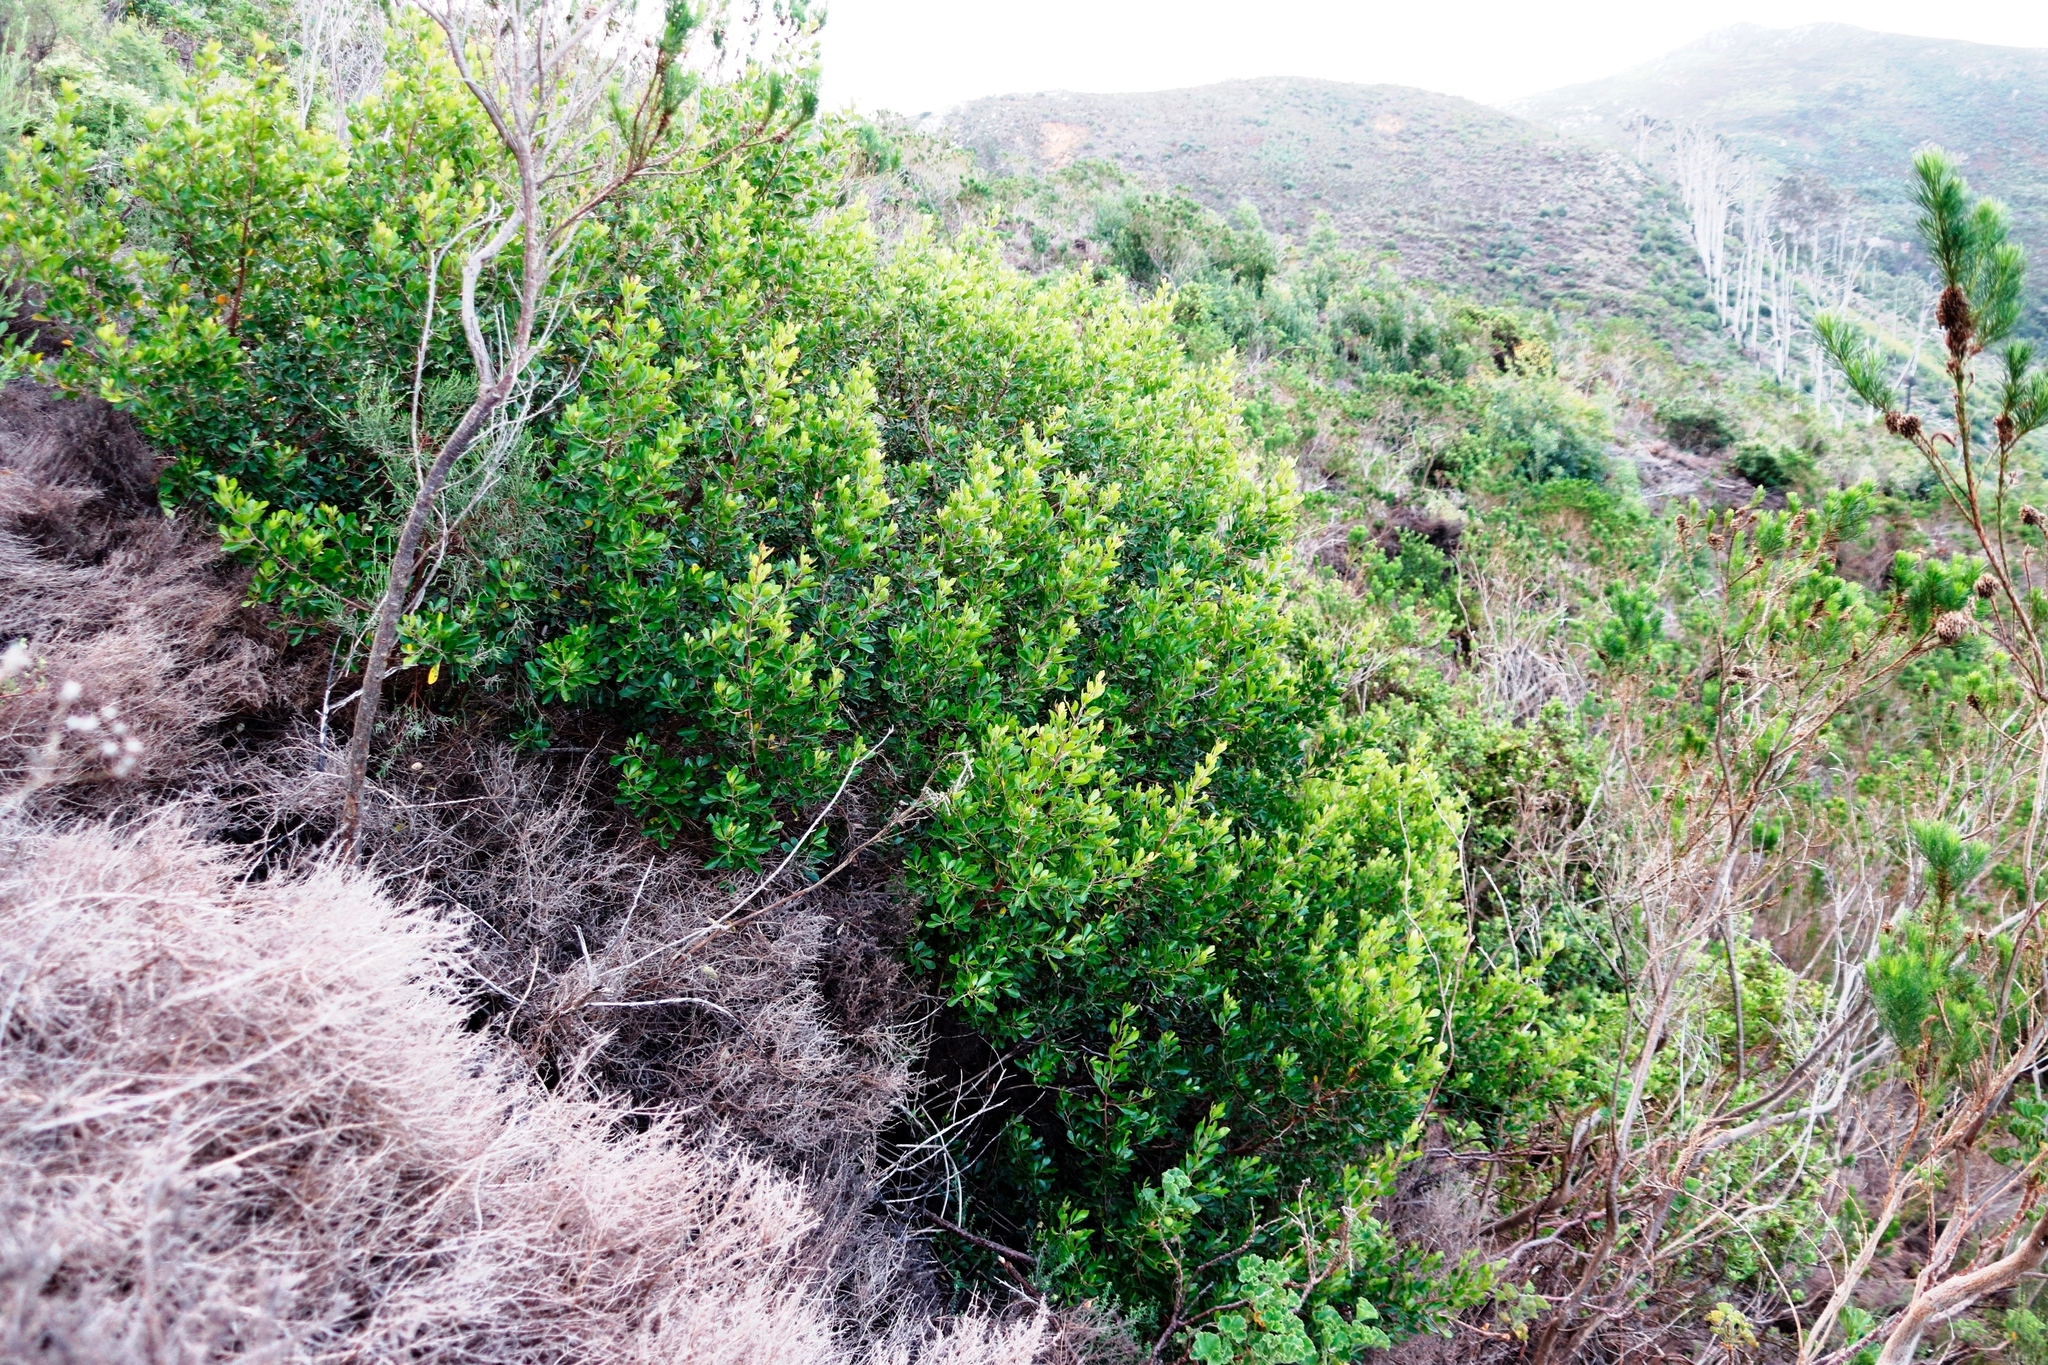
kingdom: Plantae
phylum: Tracheophyta
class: Magnoliopsida
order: Sapindales
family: Anacardiaceae
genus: Searsia
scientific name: Searsia lucida
